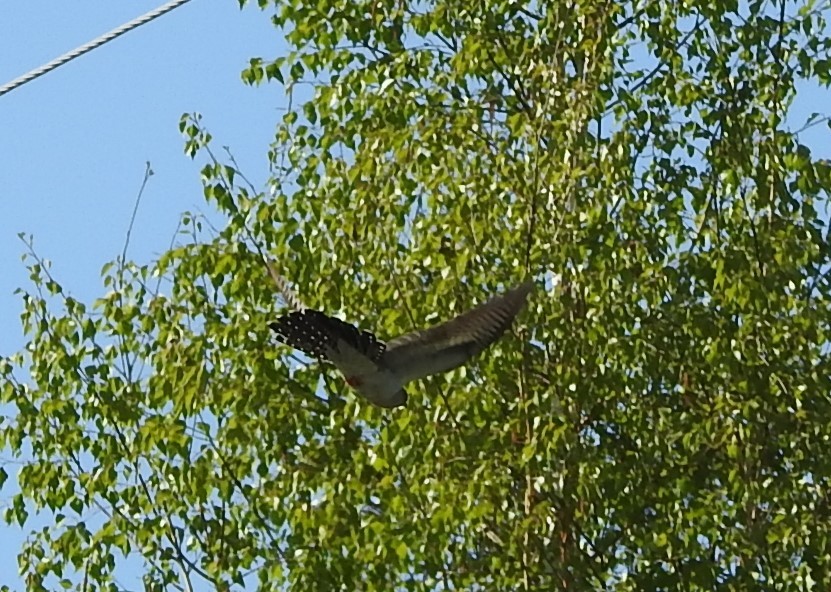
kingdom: Animalia
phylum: Chordata
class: Aves
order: Cuculiformes
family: Cuculidae
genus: Cuculus
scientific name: Cuculus canorus
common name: Common cuckoo
